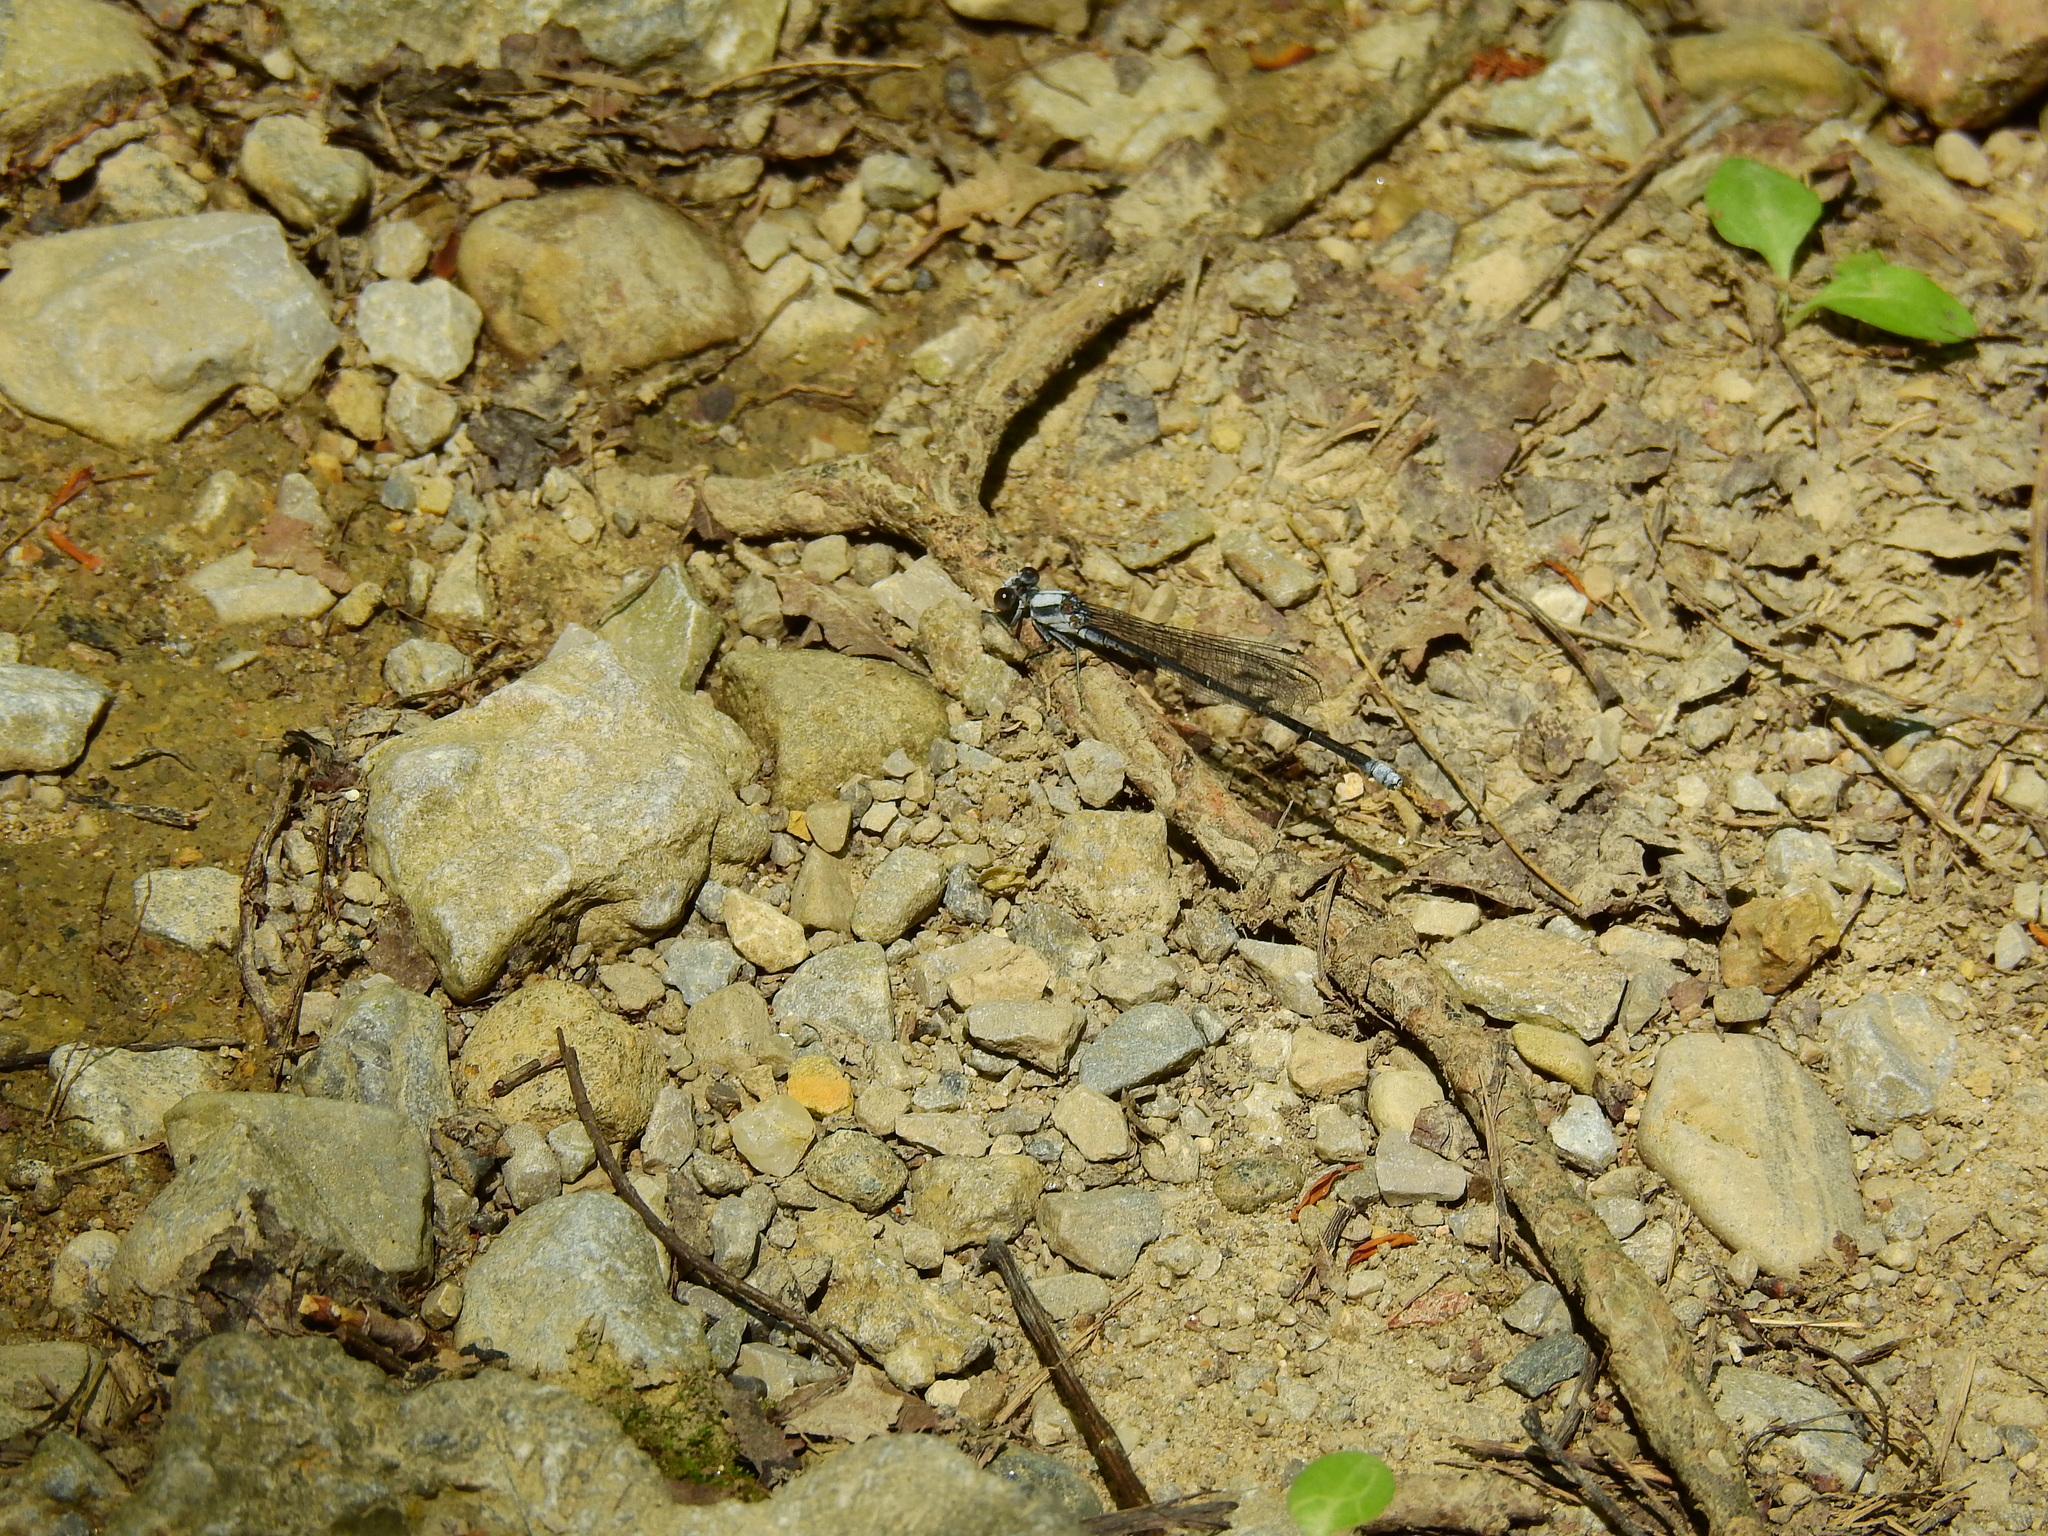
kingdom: Animalia
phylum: Arthropoda
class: Insecta
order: Odonata
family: Coenagrionidae
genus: Argia
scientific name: Argia moesta
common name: Powdered dancer
